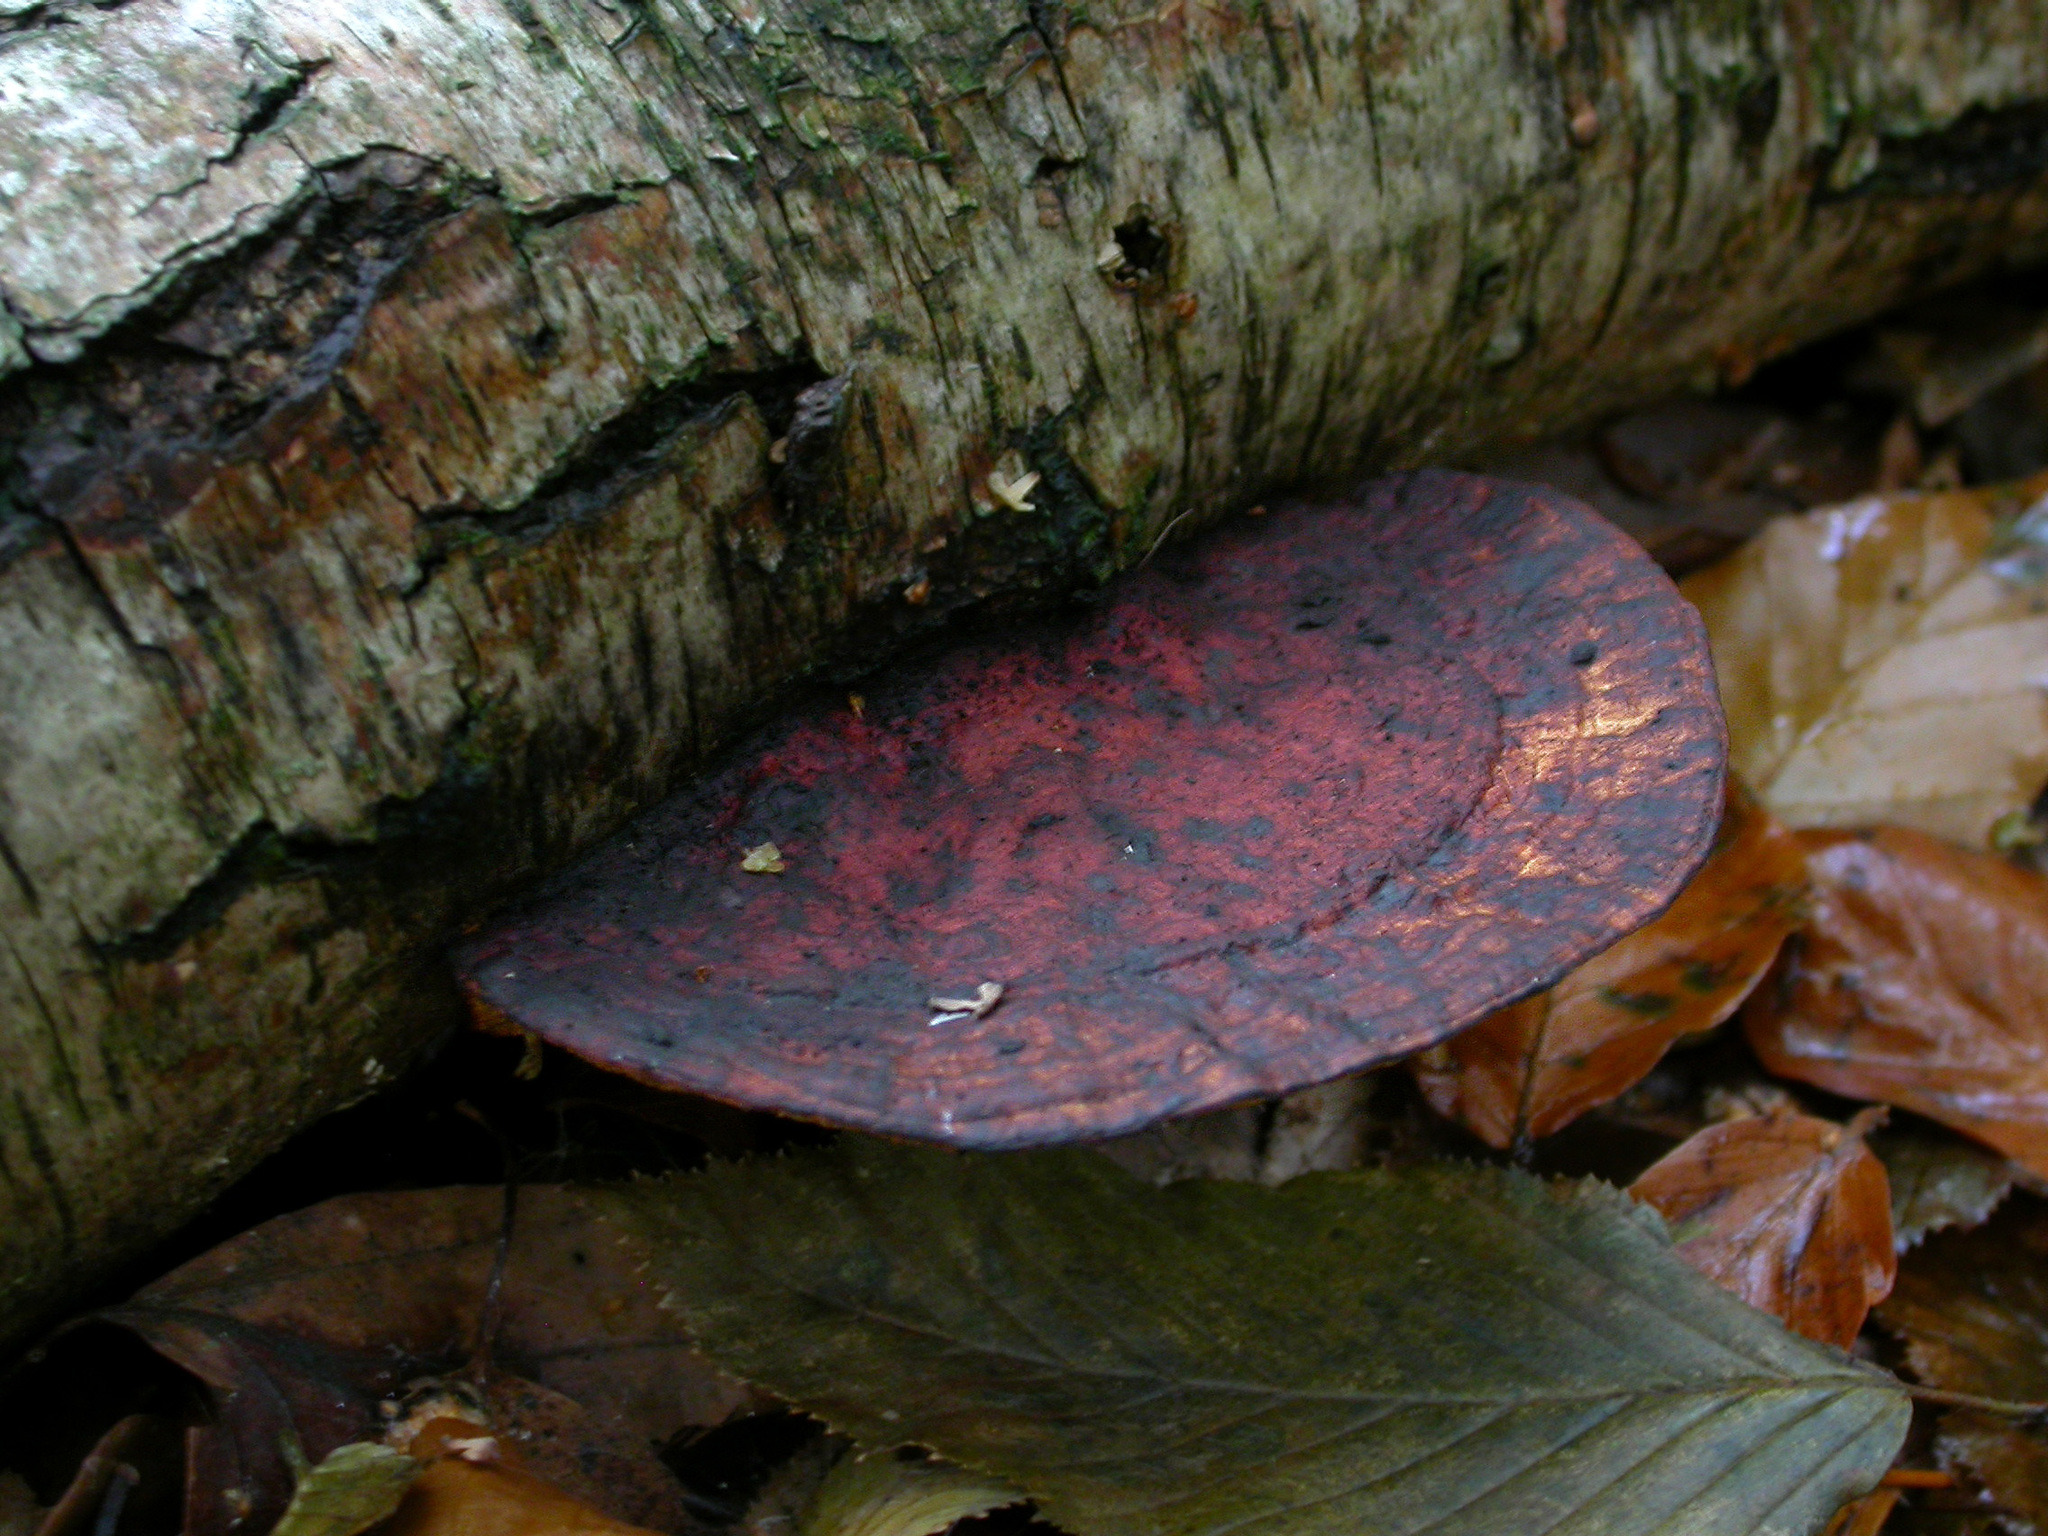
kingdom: Fungi
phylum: Basidiomycota
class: Agaricomycetes
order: Polyporales
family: Polyporaceae
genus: Daedaleopsis
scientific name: Daedaleopsis tricolor
